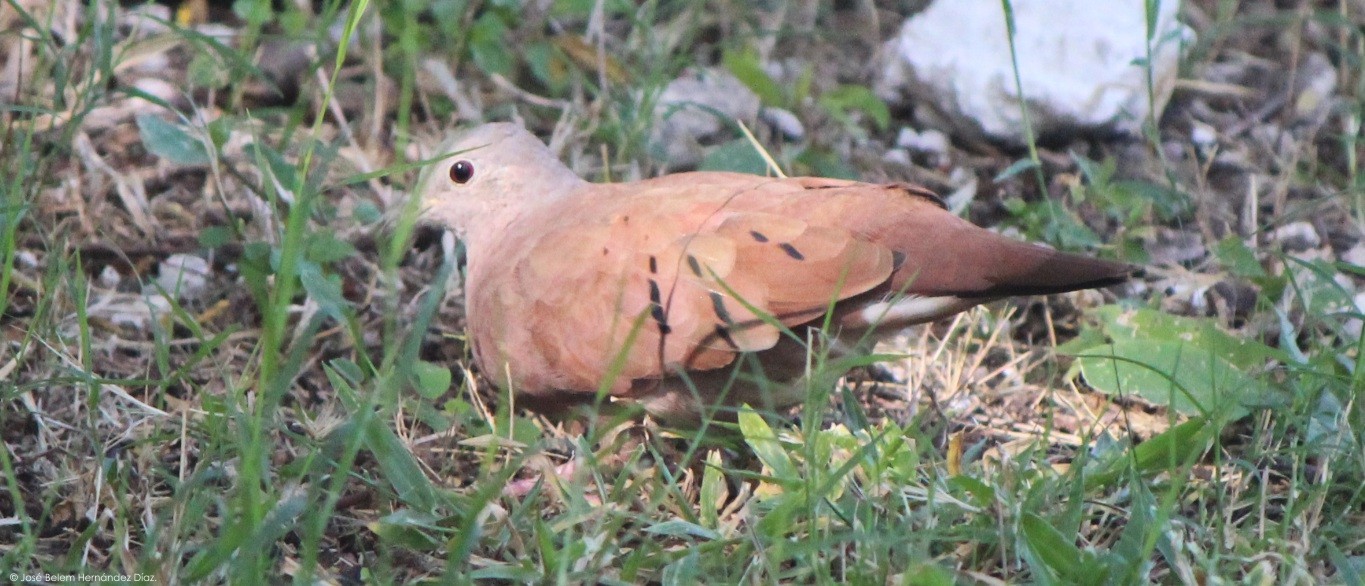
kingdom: Animalia
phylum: Chordata
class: Aves
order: Columbiformes
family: Columbidae
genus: Columbina
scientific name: Columbina talpacoti
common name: Ruddy ground dove
